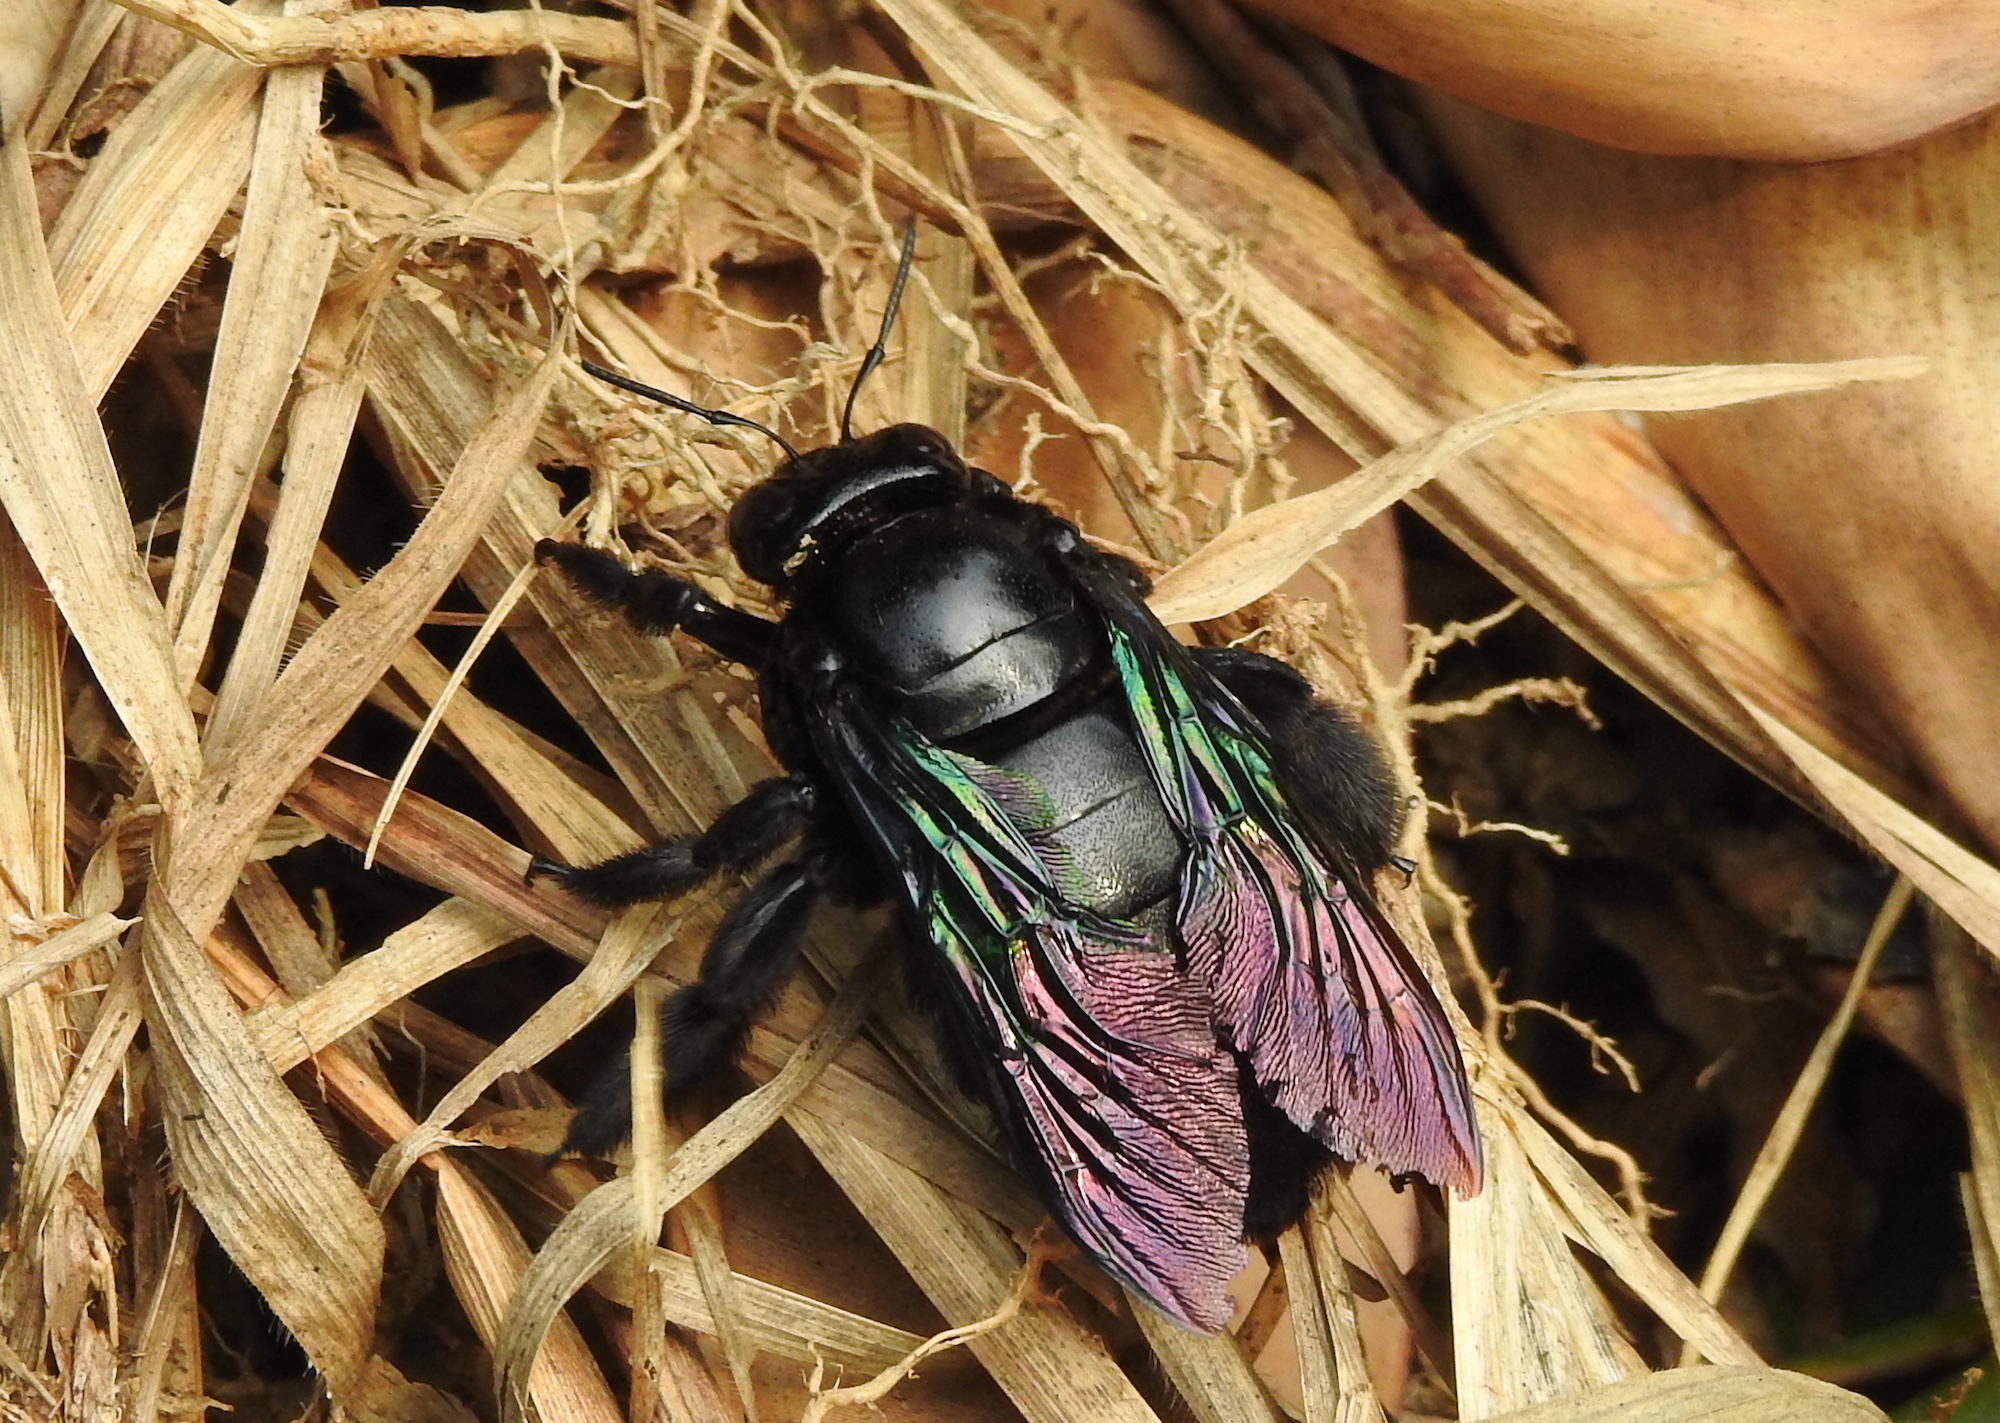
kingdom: Animalia
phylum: Arthropoda
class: Insecta
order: Hymenoptera
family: Apidae
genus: Xylocopa
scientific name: Xylocopa latipes
